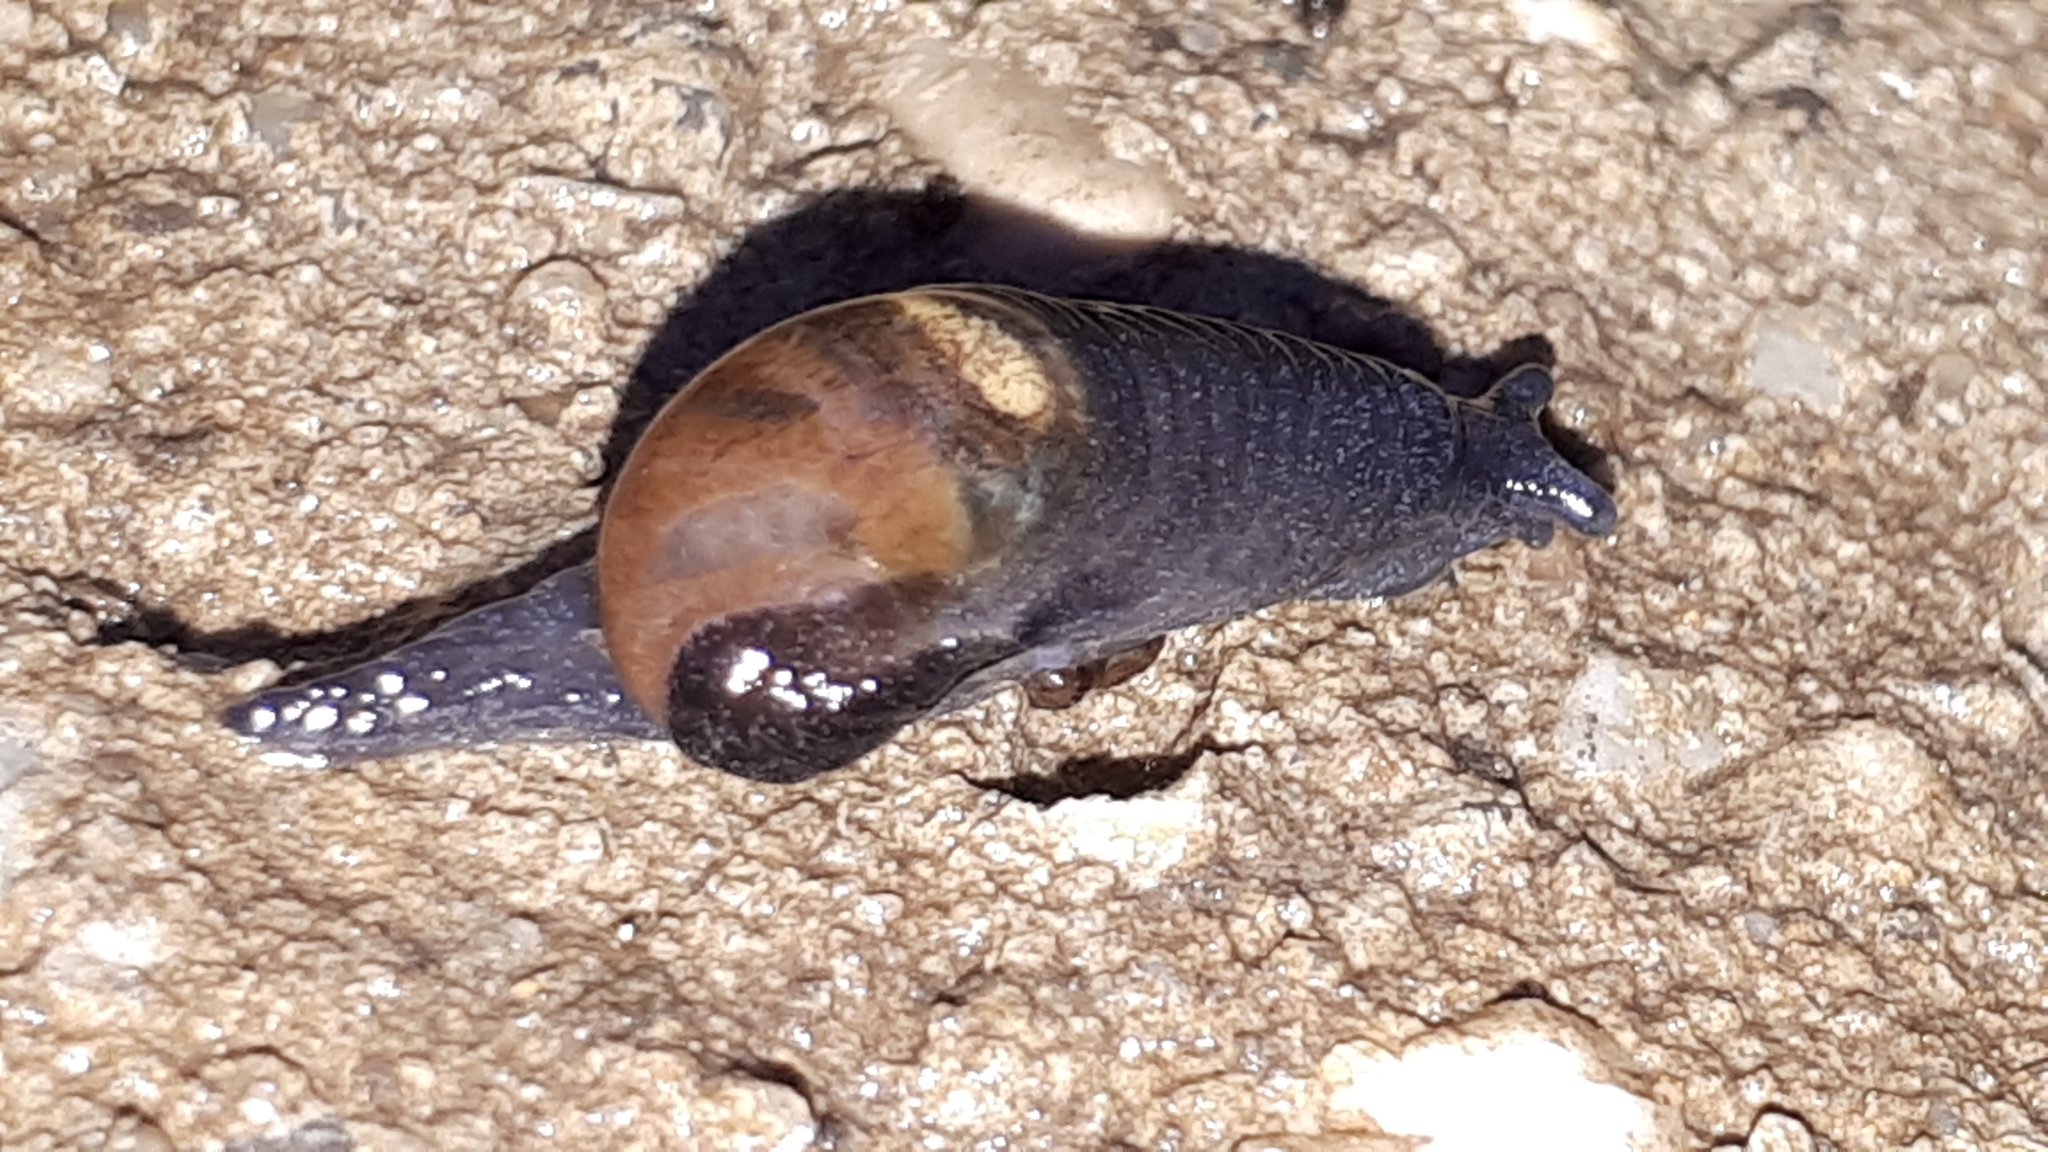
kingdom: Animalia
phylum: Mollusca
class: Gastropoda
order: Stylommatophora
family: Vitrinidae
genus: Eucobresia
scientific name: Eucobresia diaphana
